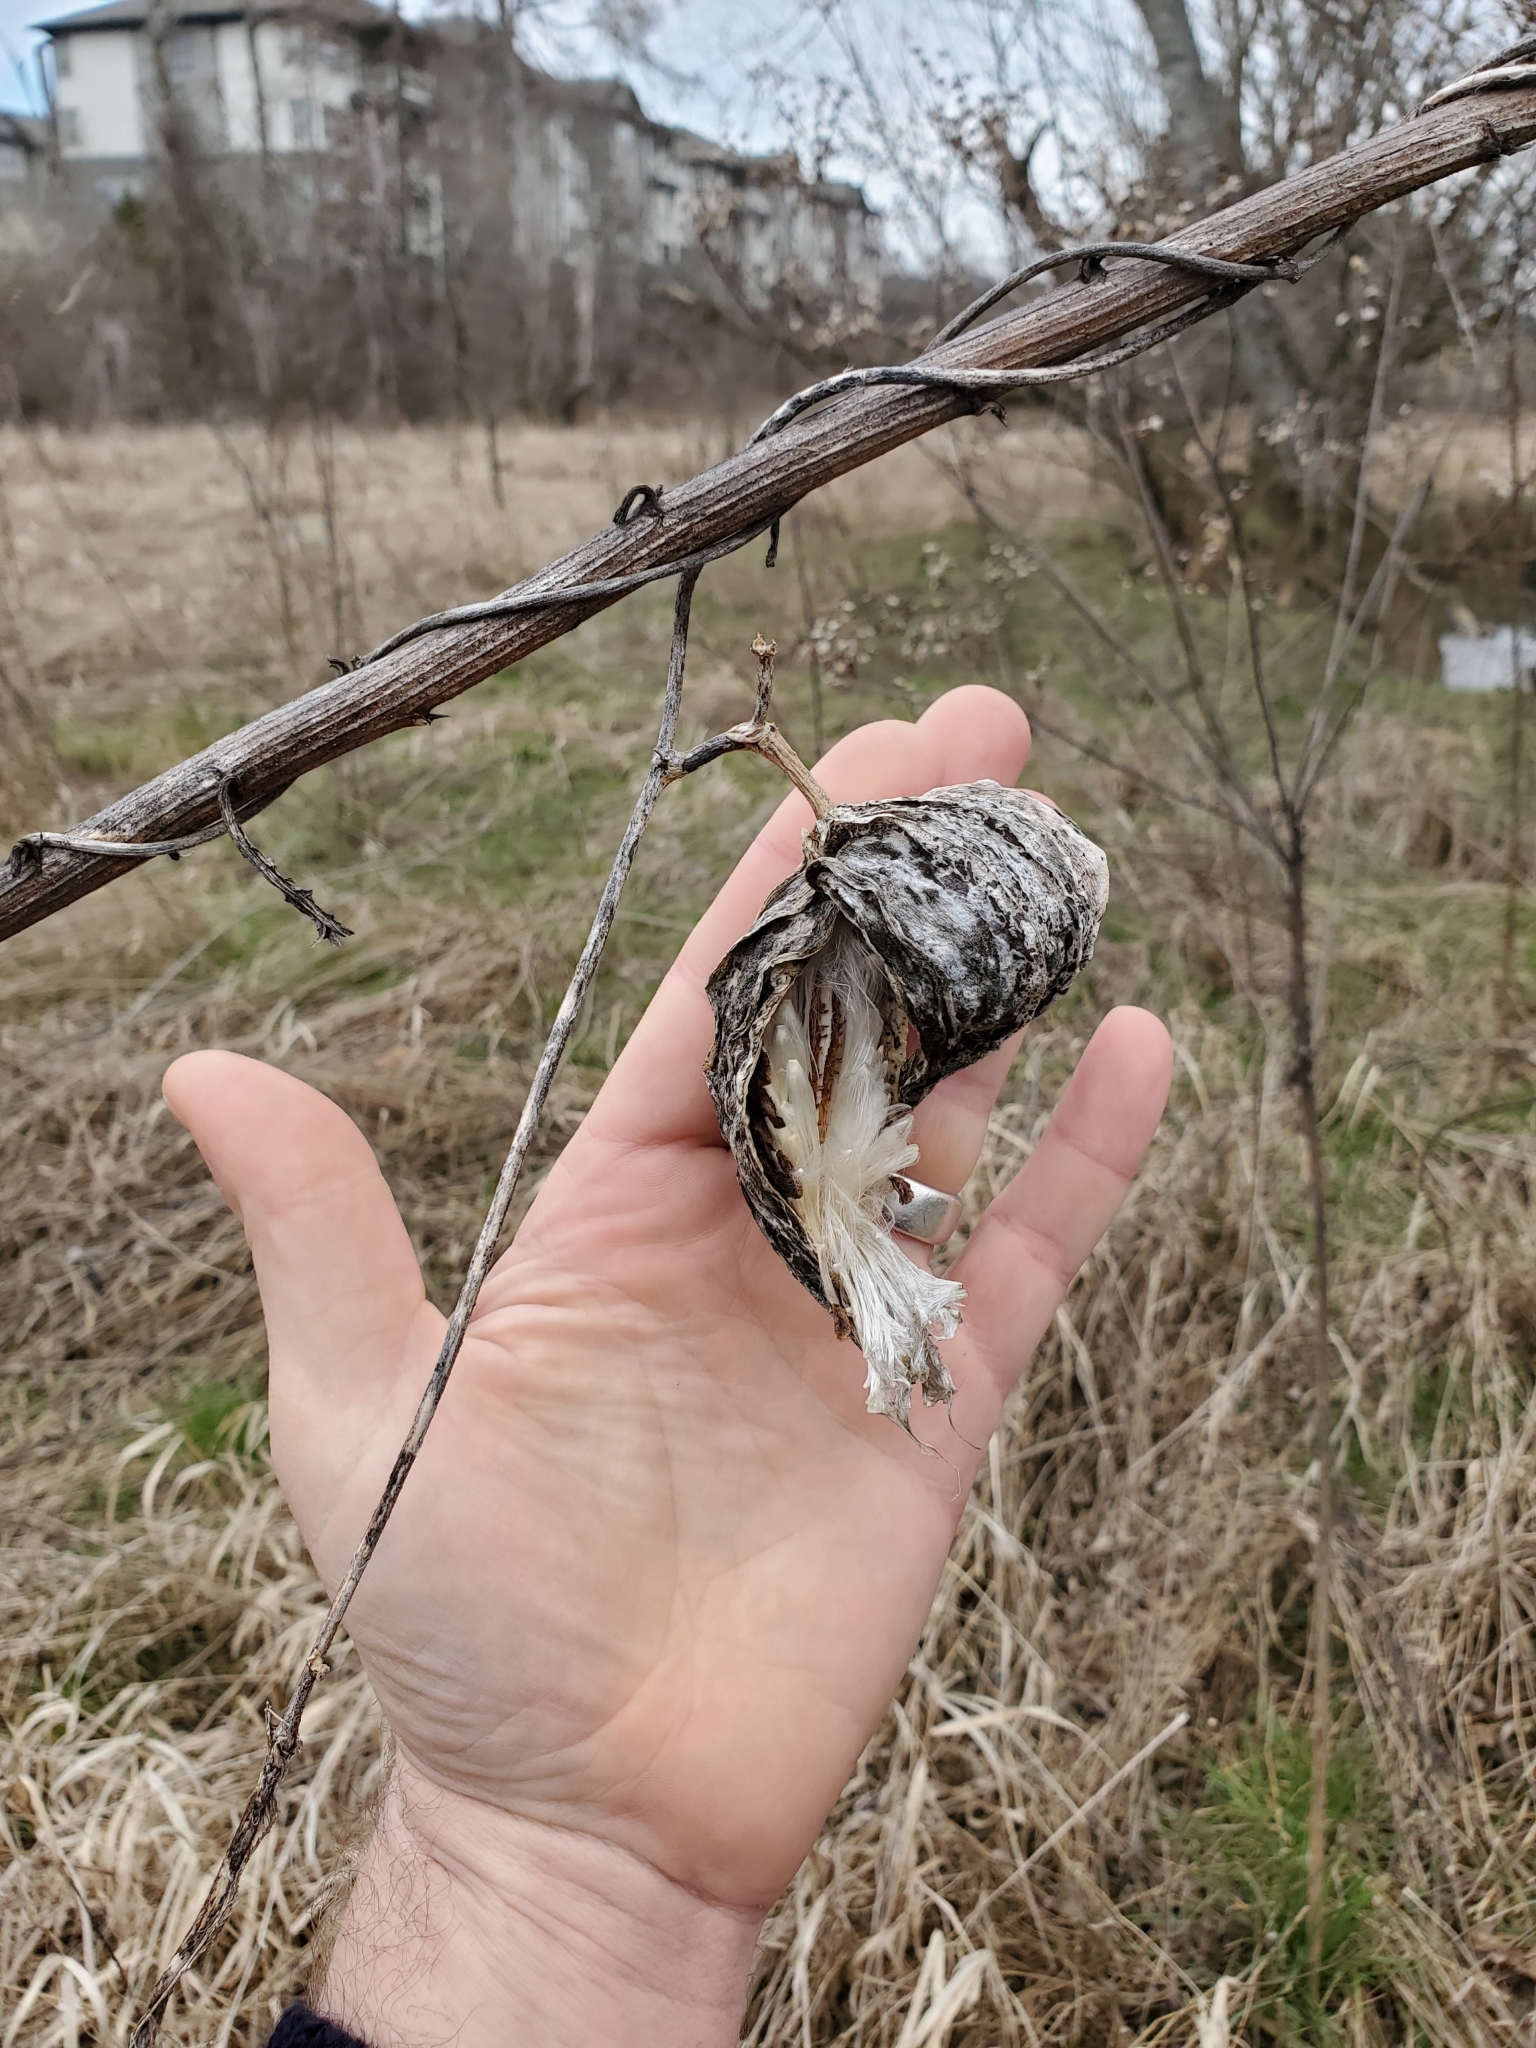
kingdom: Plantae
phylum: Tracheophyta
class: Magnoliopsida
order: Gentianales
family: Apocynaceae
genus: Gonolobus
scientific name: Gonolobus suberosus
